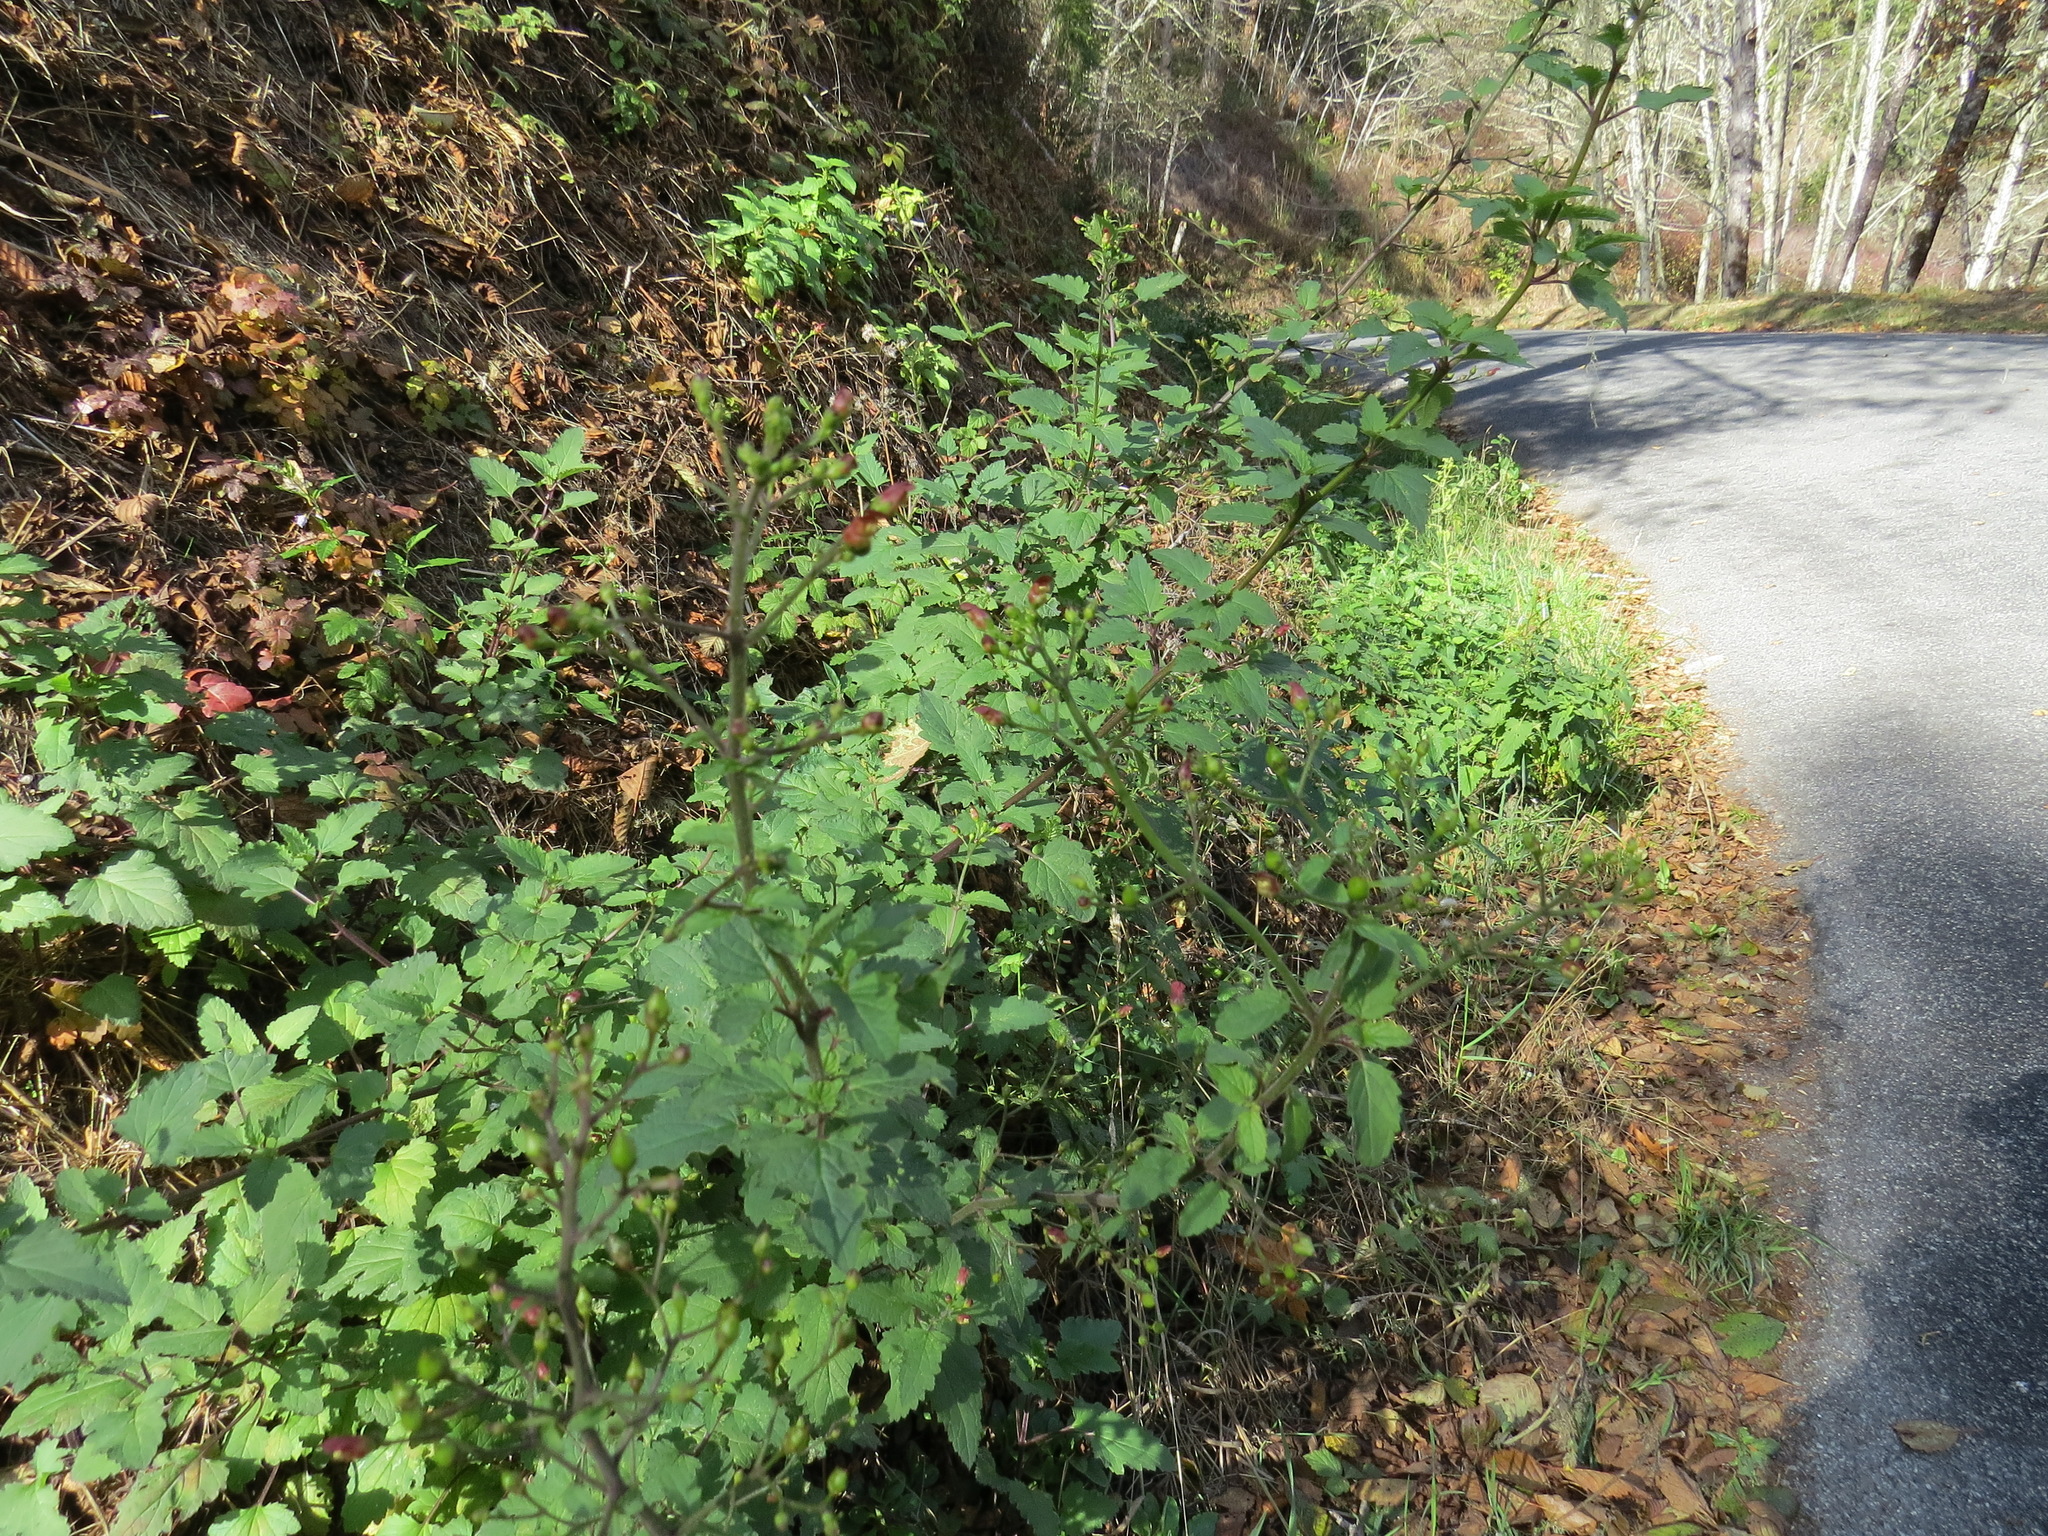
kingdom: Plantae
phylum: Tracheophyta
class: Magnoliopsida
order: Lamiales
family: Scrophulariaceae
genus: Scrophularia
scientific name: Scrophularia californica
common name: California figwort
